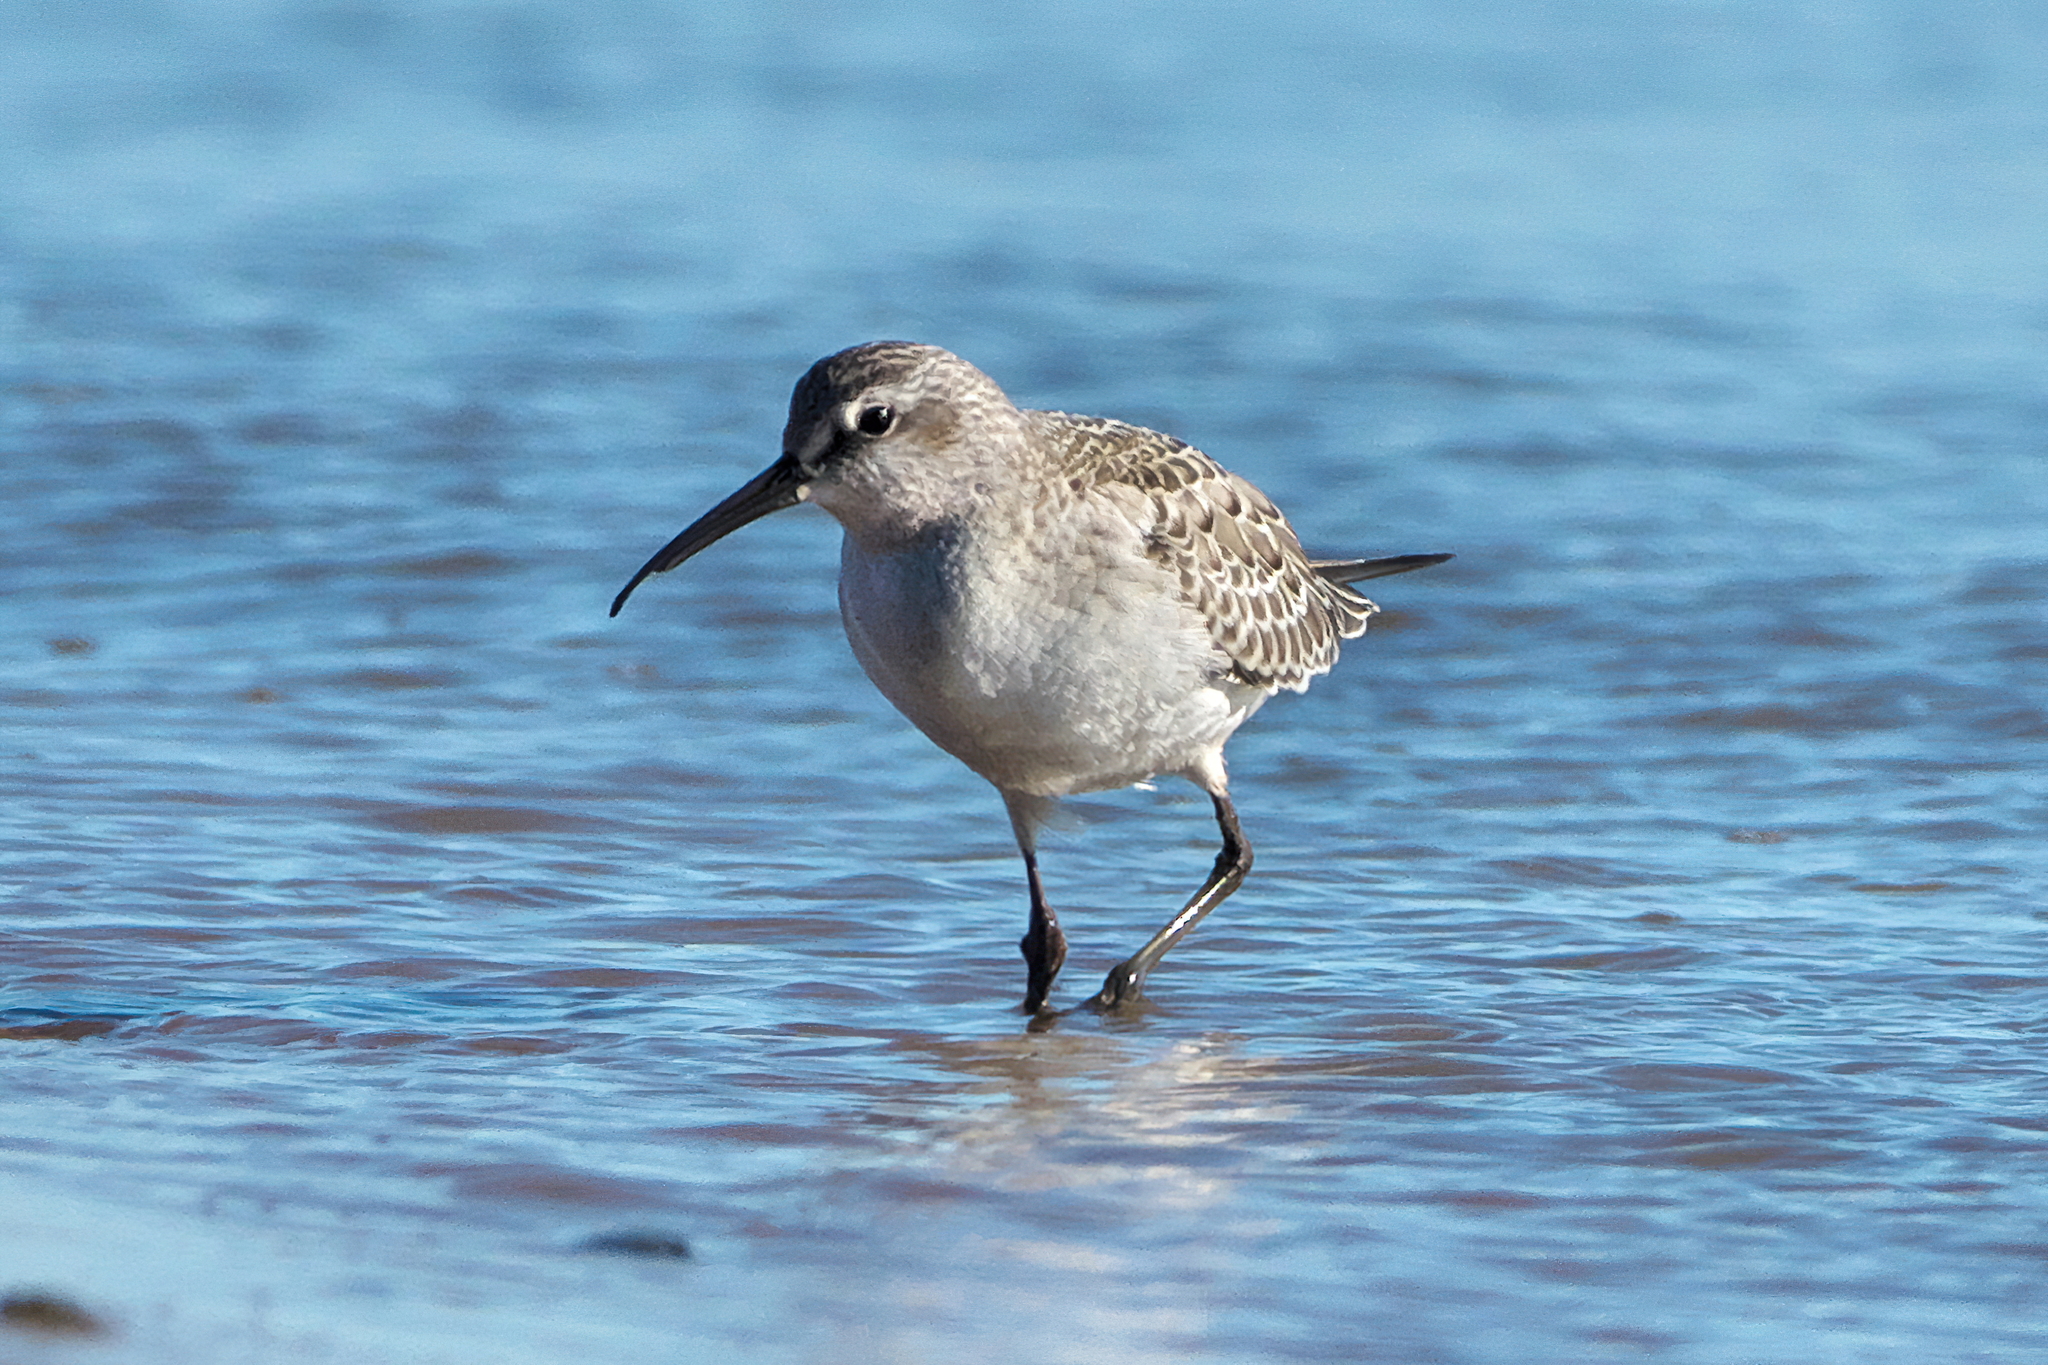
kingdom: Animalia
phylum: Chordata
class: Aves
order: Charadriiformes
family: Scolopacidae
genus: Calidris
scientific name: Calidris ferruginea
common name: Curlew sandpiper
